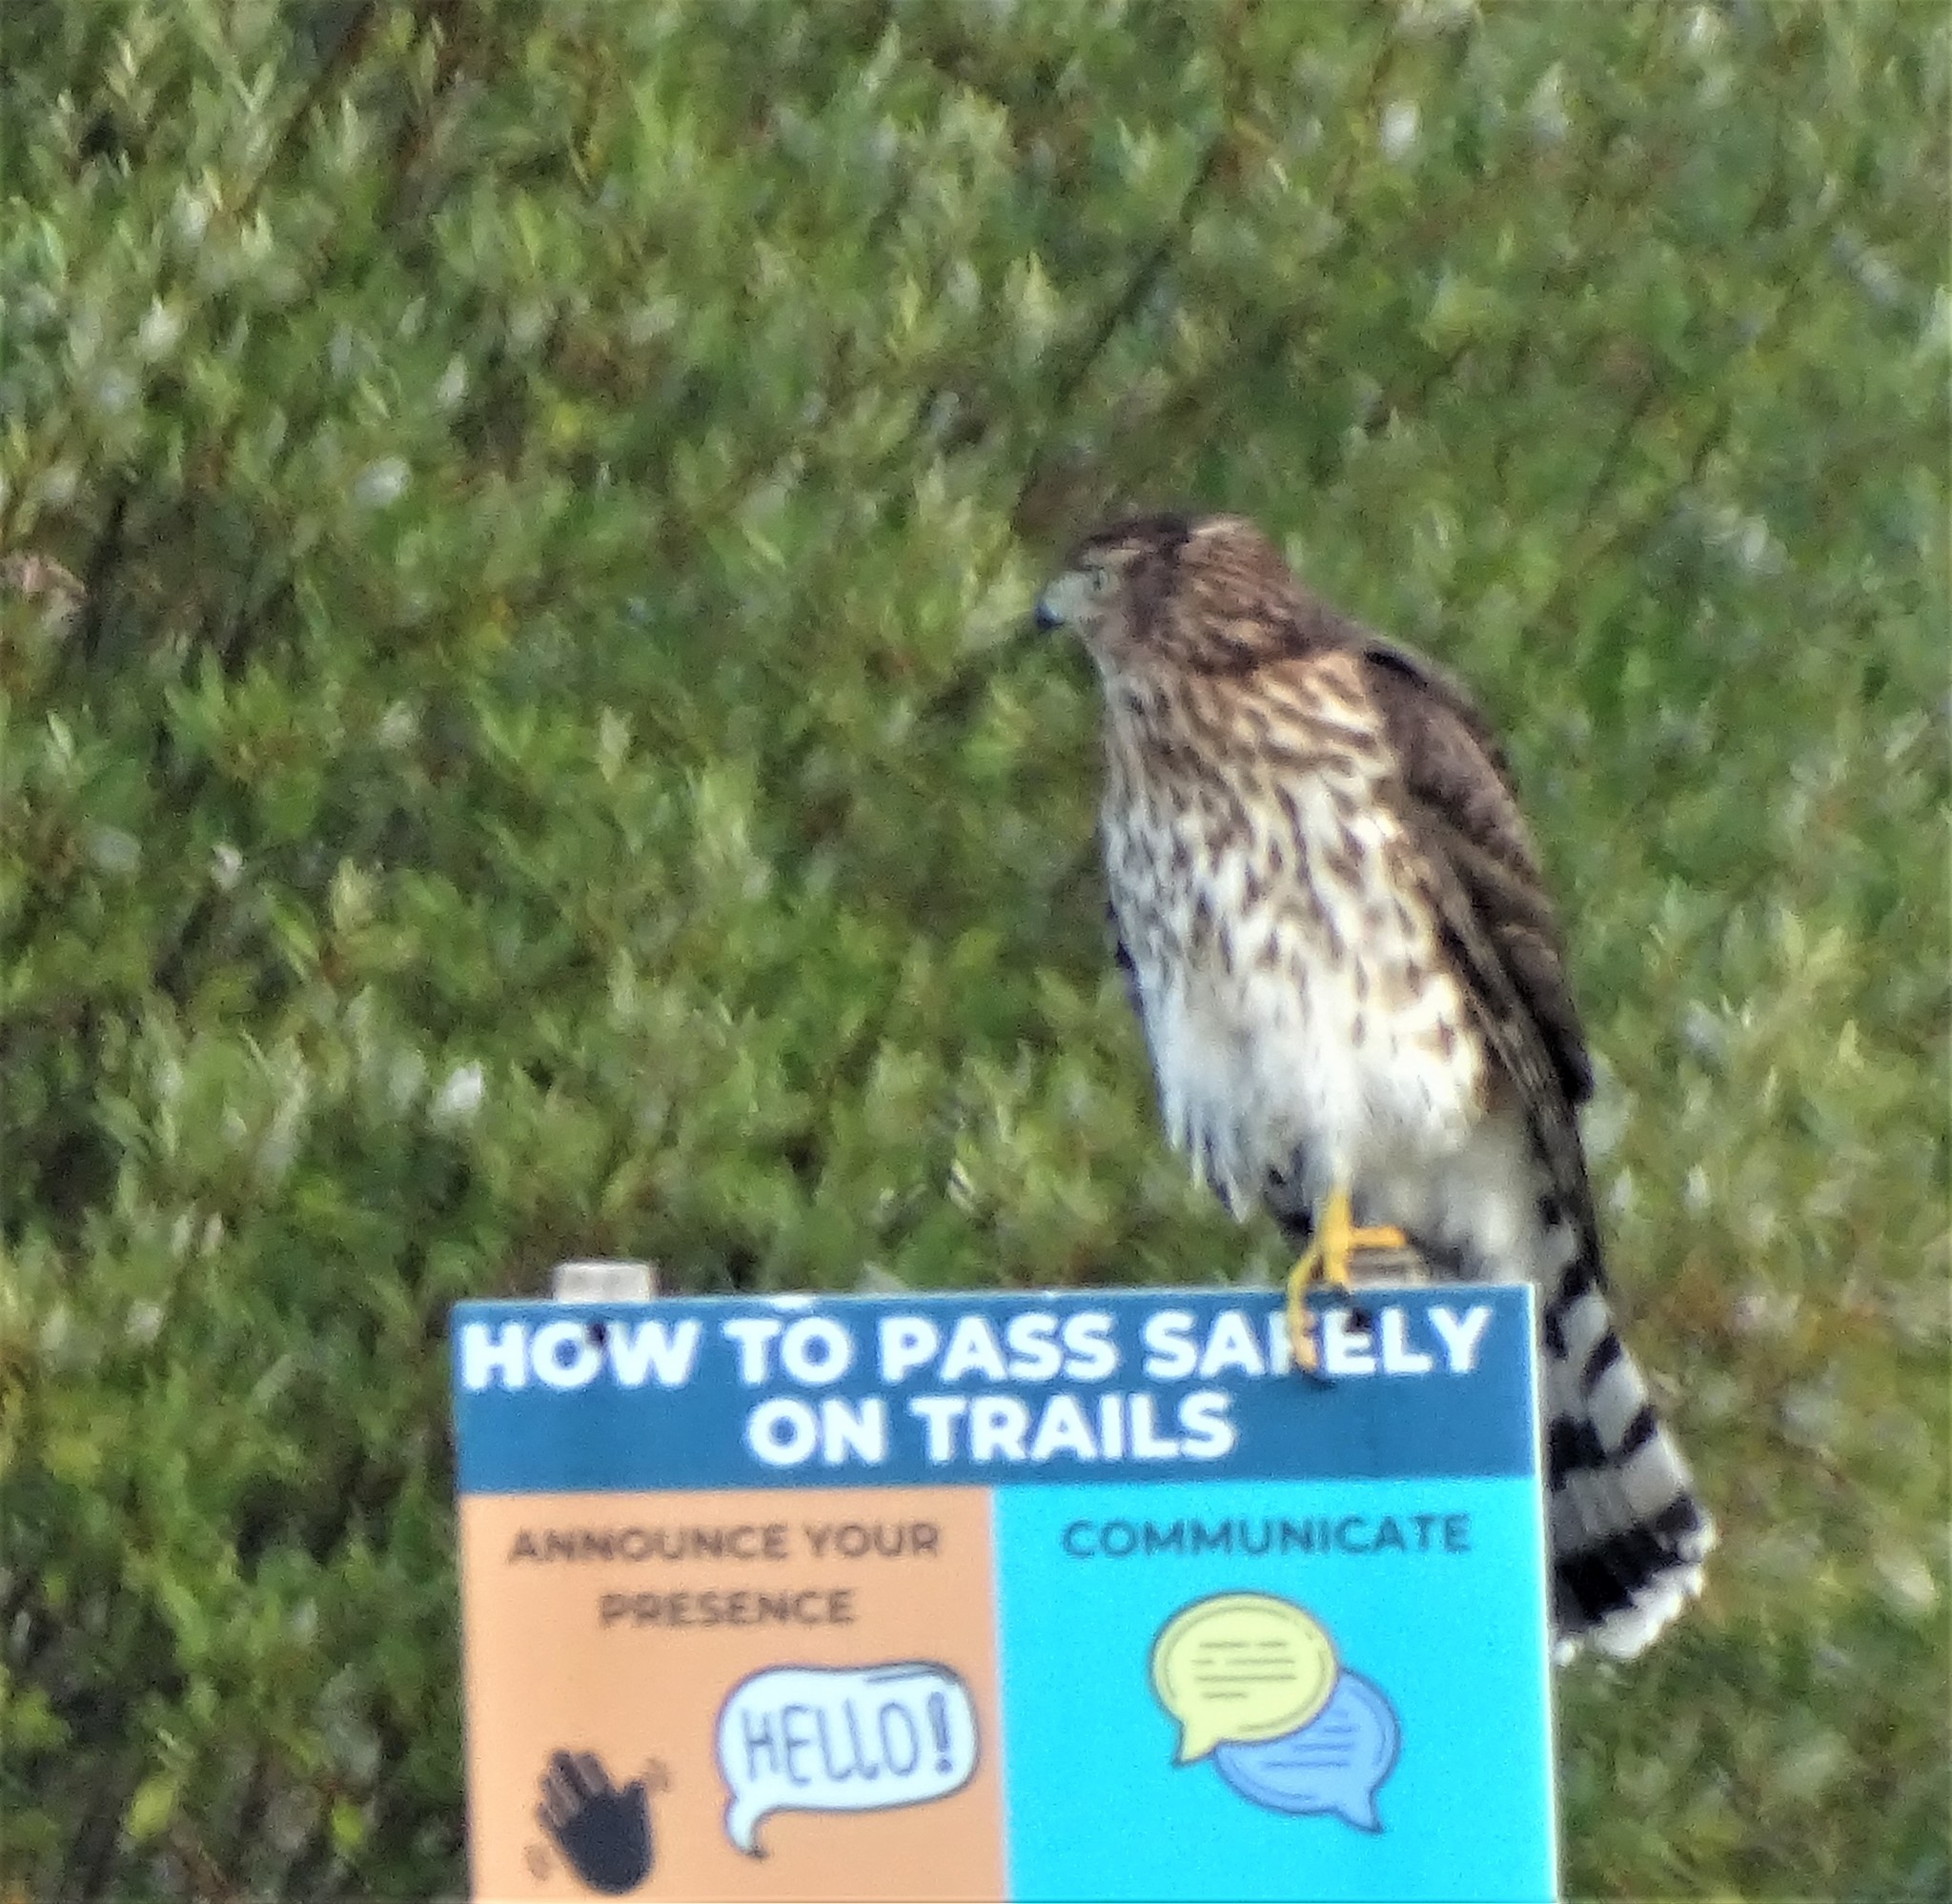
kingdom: Animalia
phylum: Chordata
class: Aves
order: Accipitriformes
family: Accipitridae
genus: Accipiter
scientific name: Accipiter cooperii
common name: Cooper's hawk
